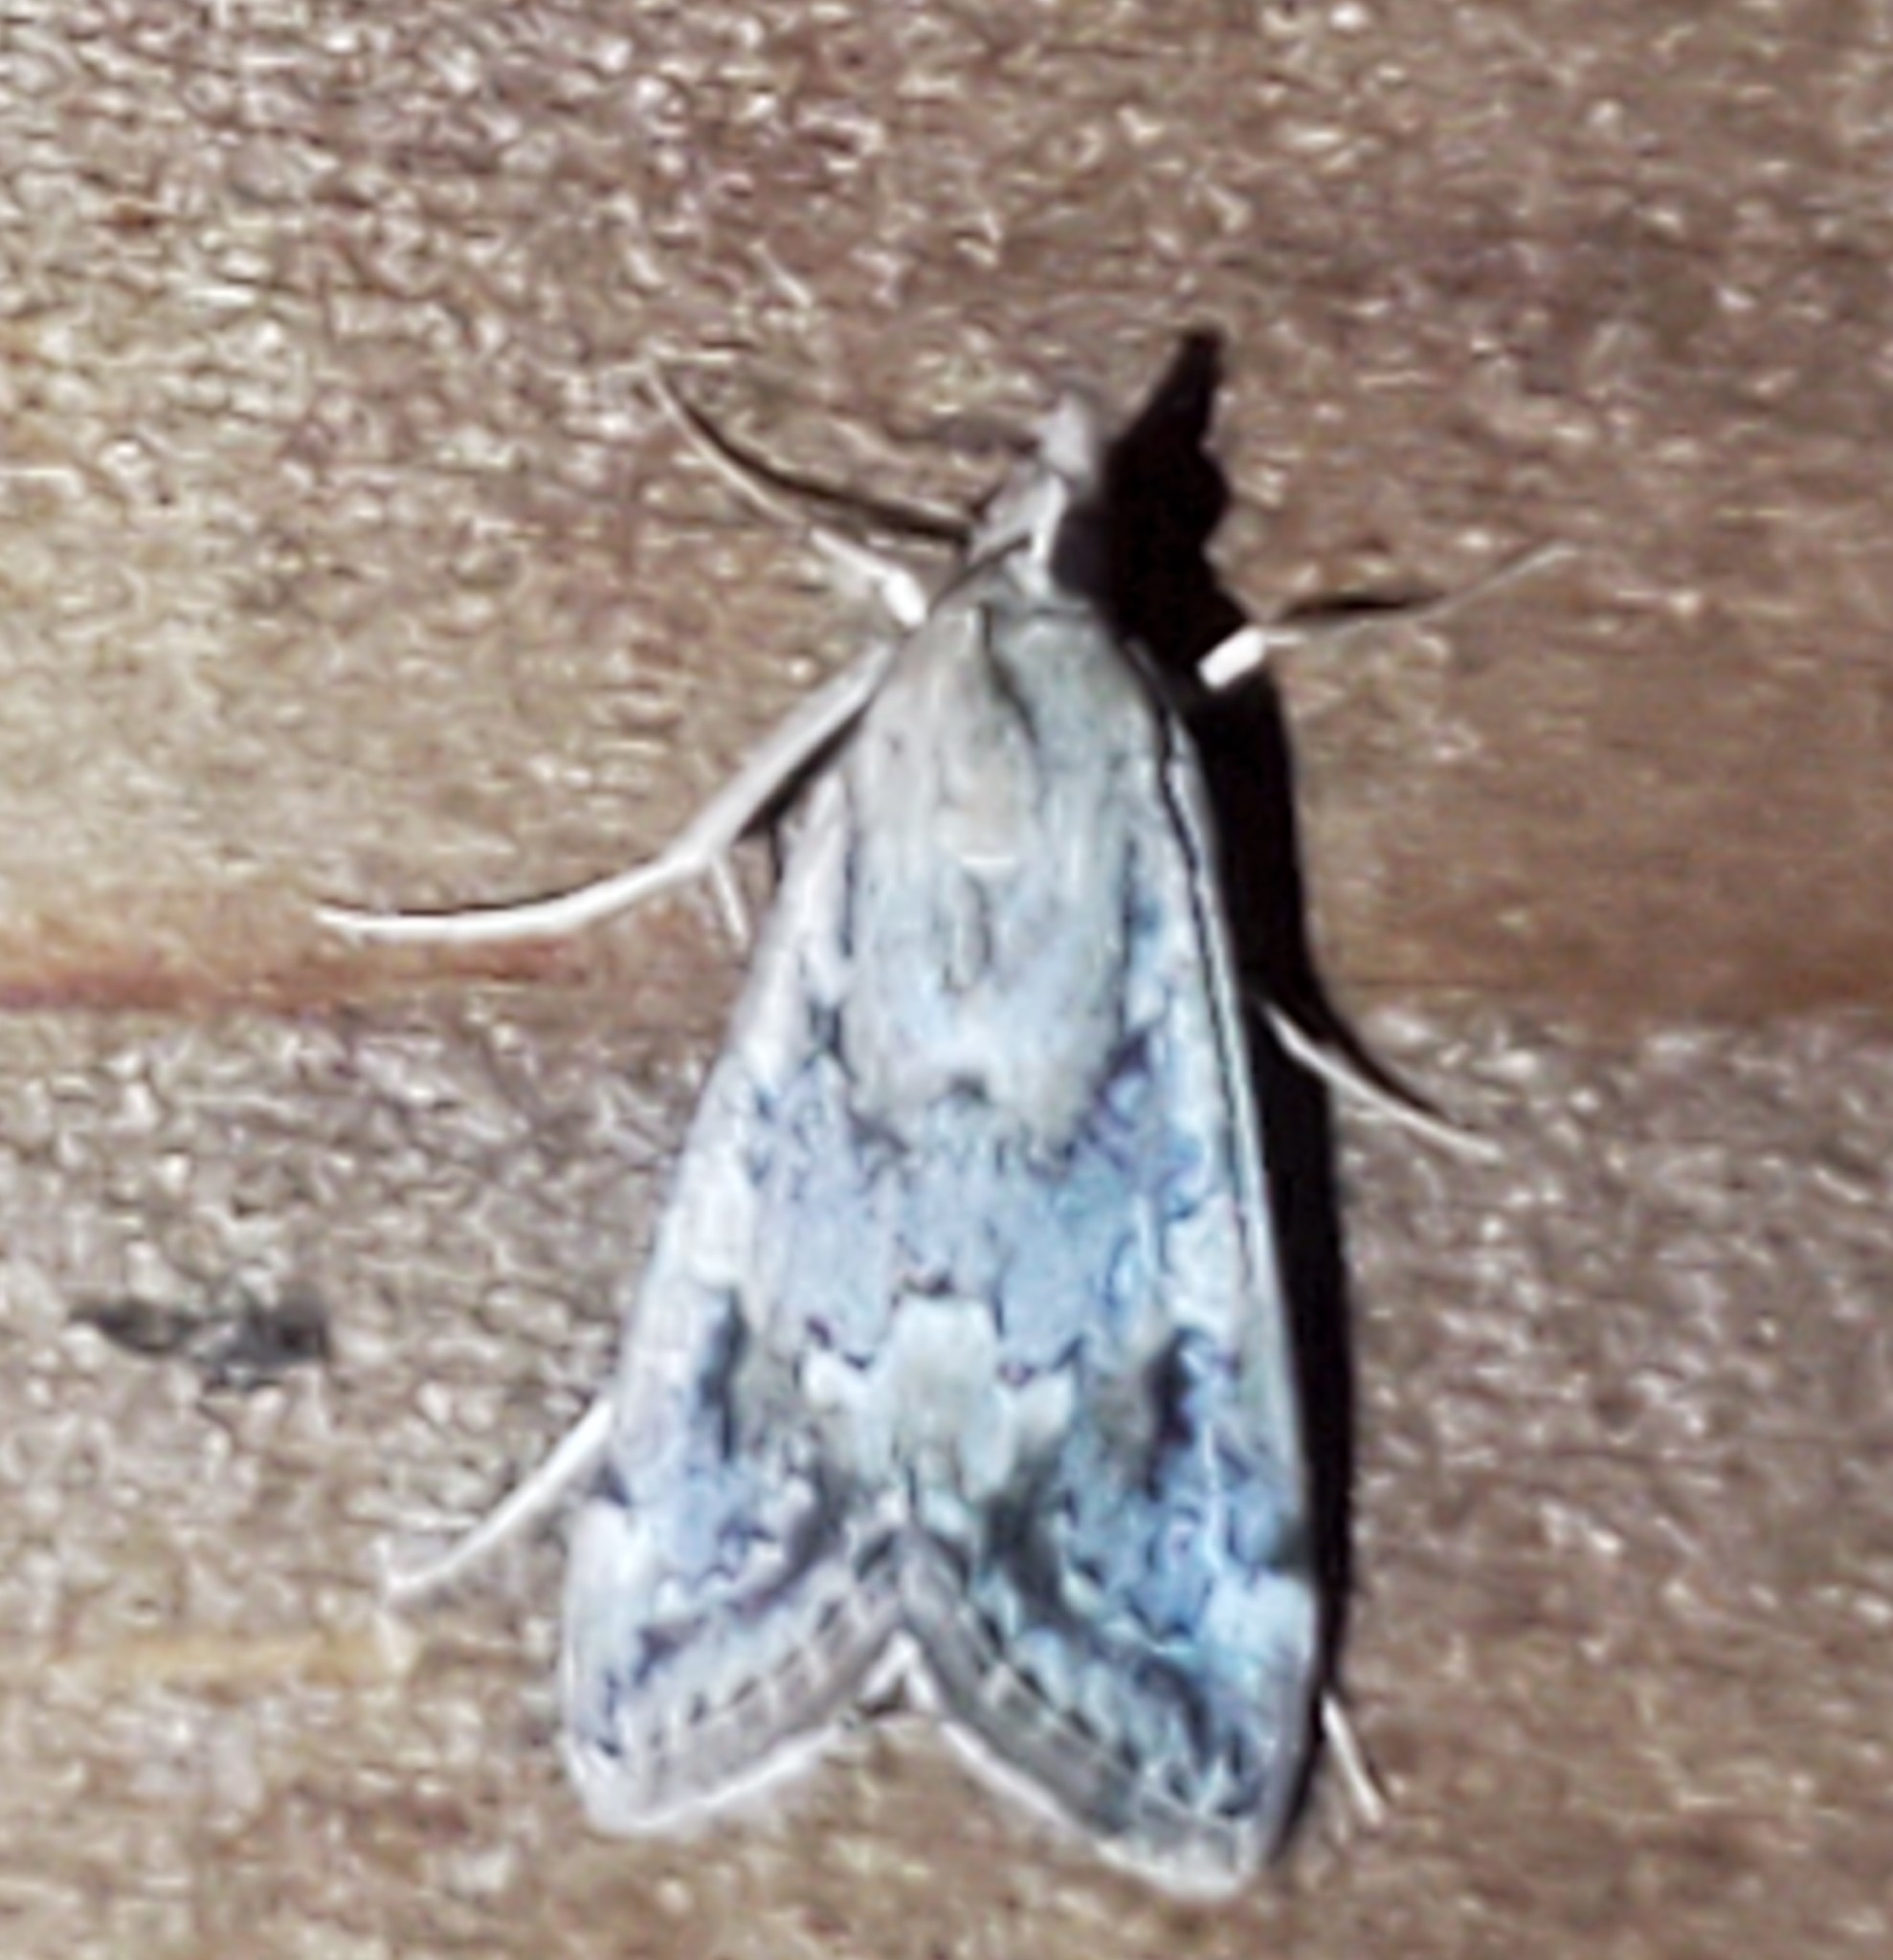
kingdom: Animalia
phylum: Arthropoda
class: Insecta
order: Lepidoptera
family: Crambidae
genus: Loxostege
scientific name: Loxostege allectalis
